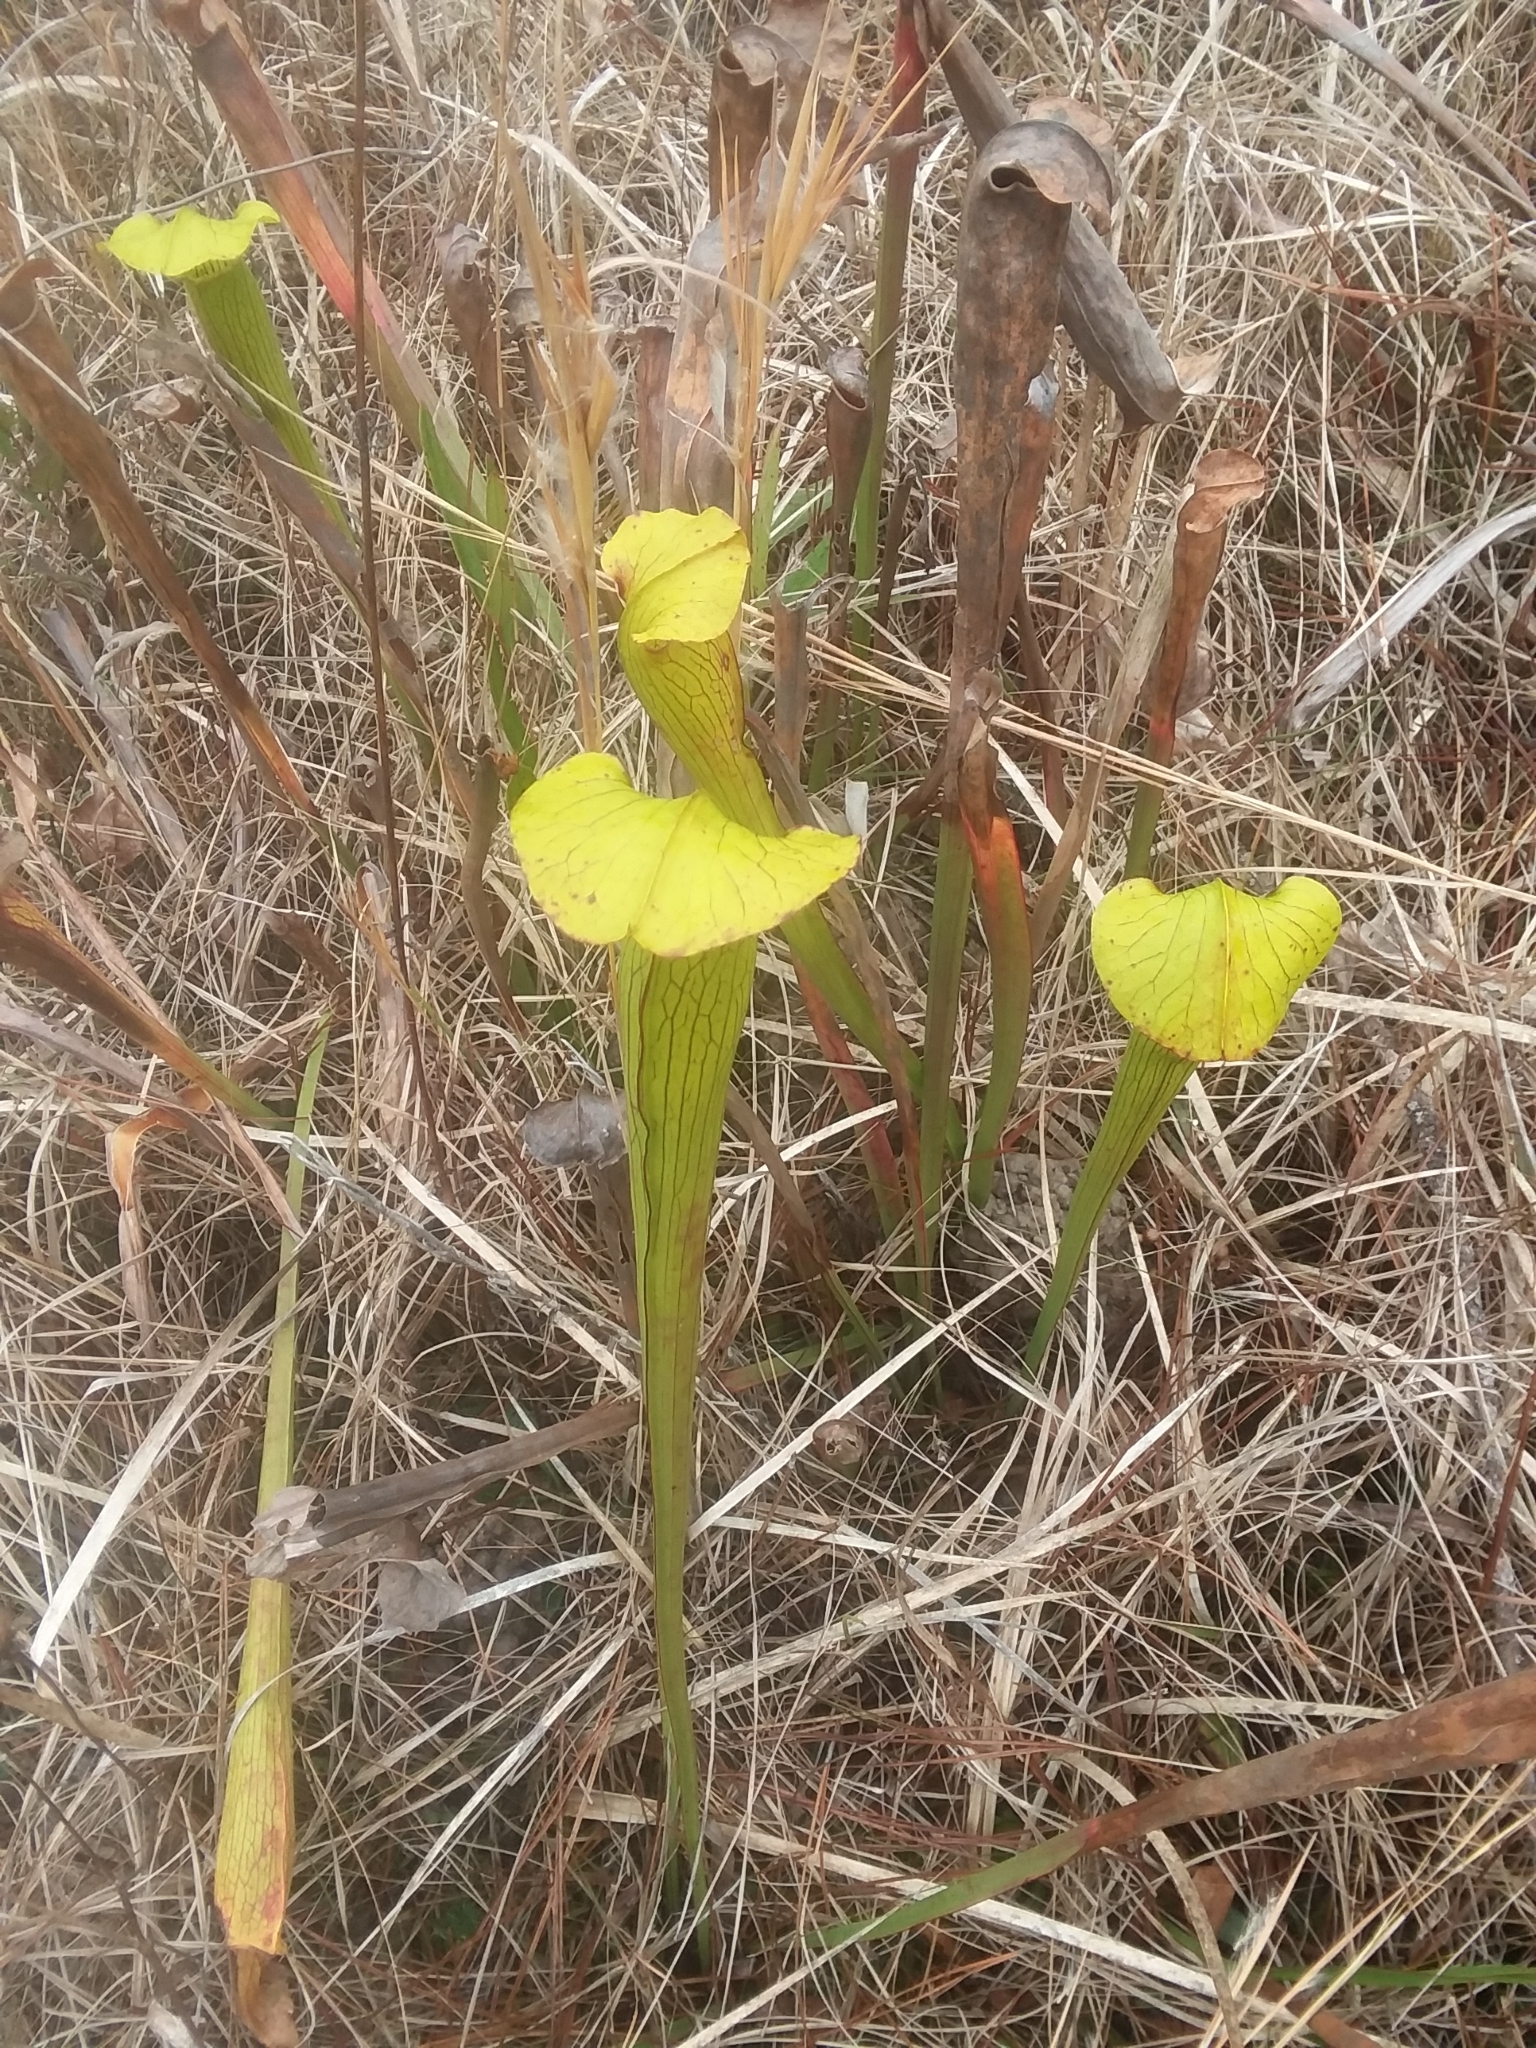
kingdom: Plantae
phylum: Tracheophyta
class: Magnoliopsida
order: Ericales
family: Sarraceniaceae
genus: Sarracenia
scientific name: Sarracenia alata
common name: Yellow trumpets
